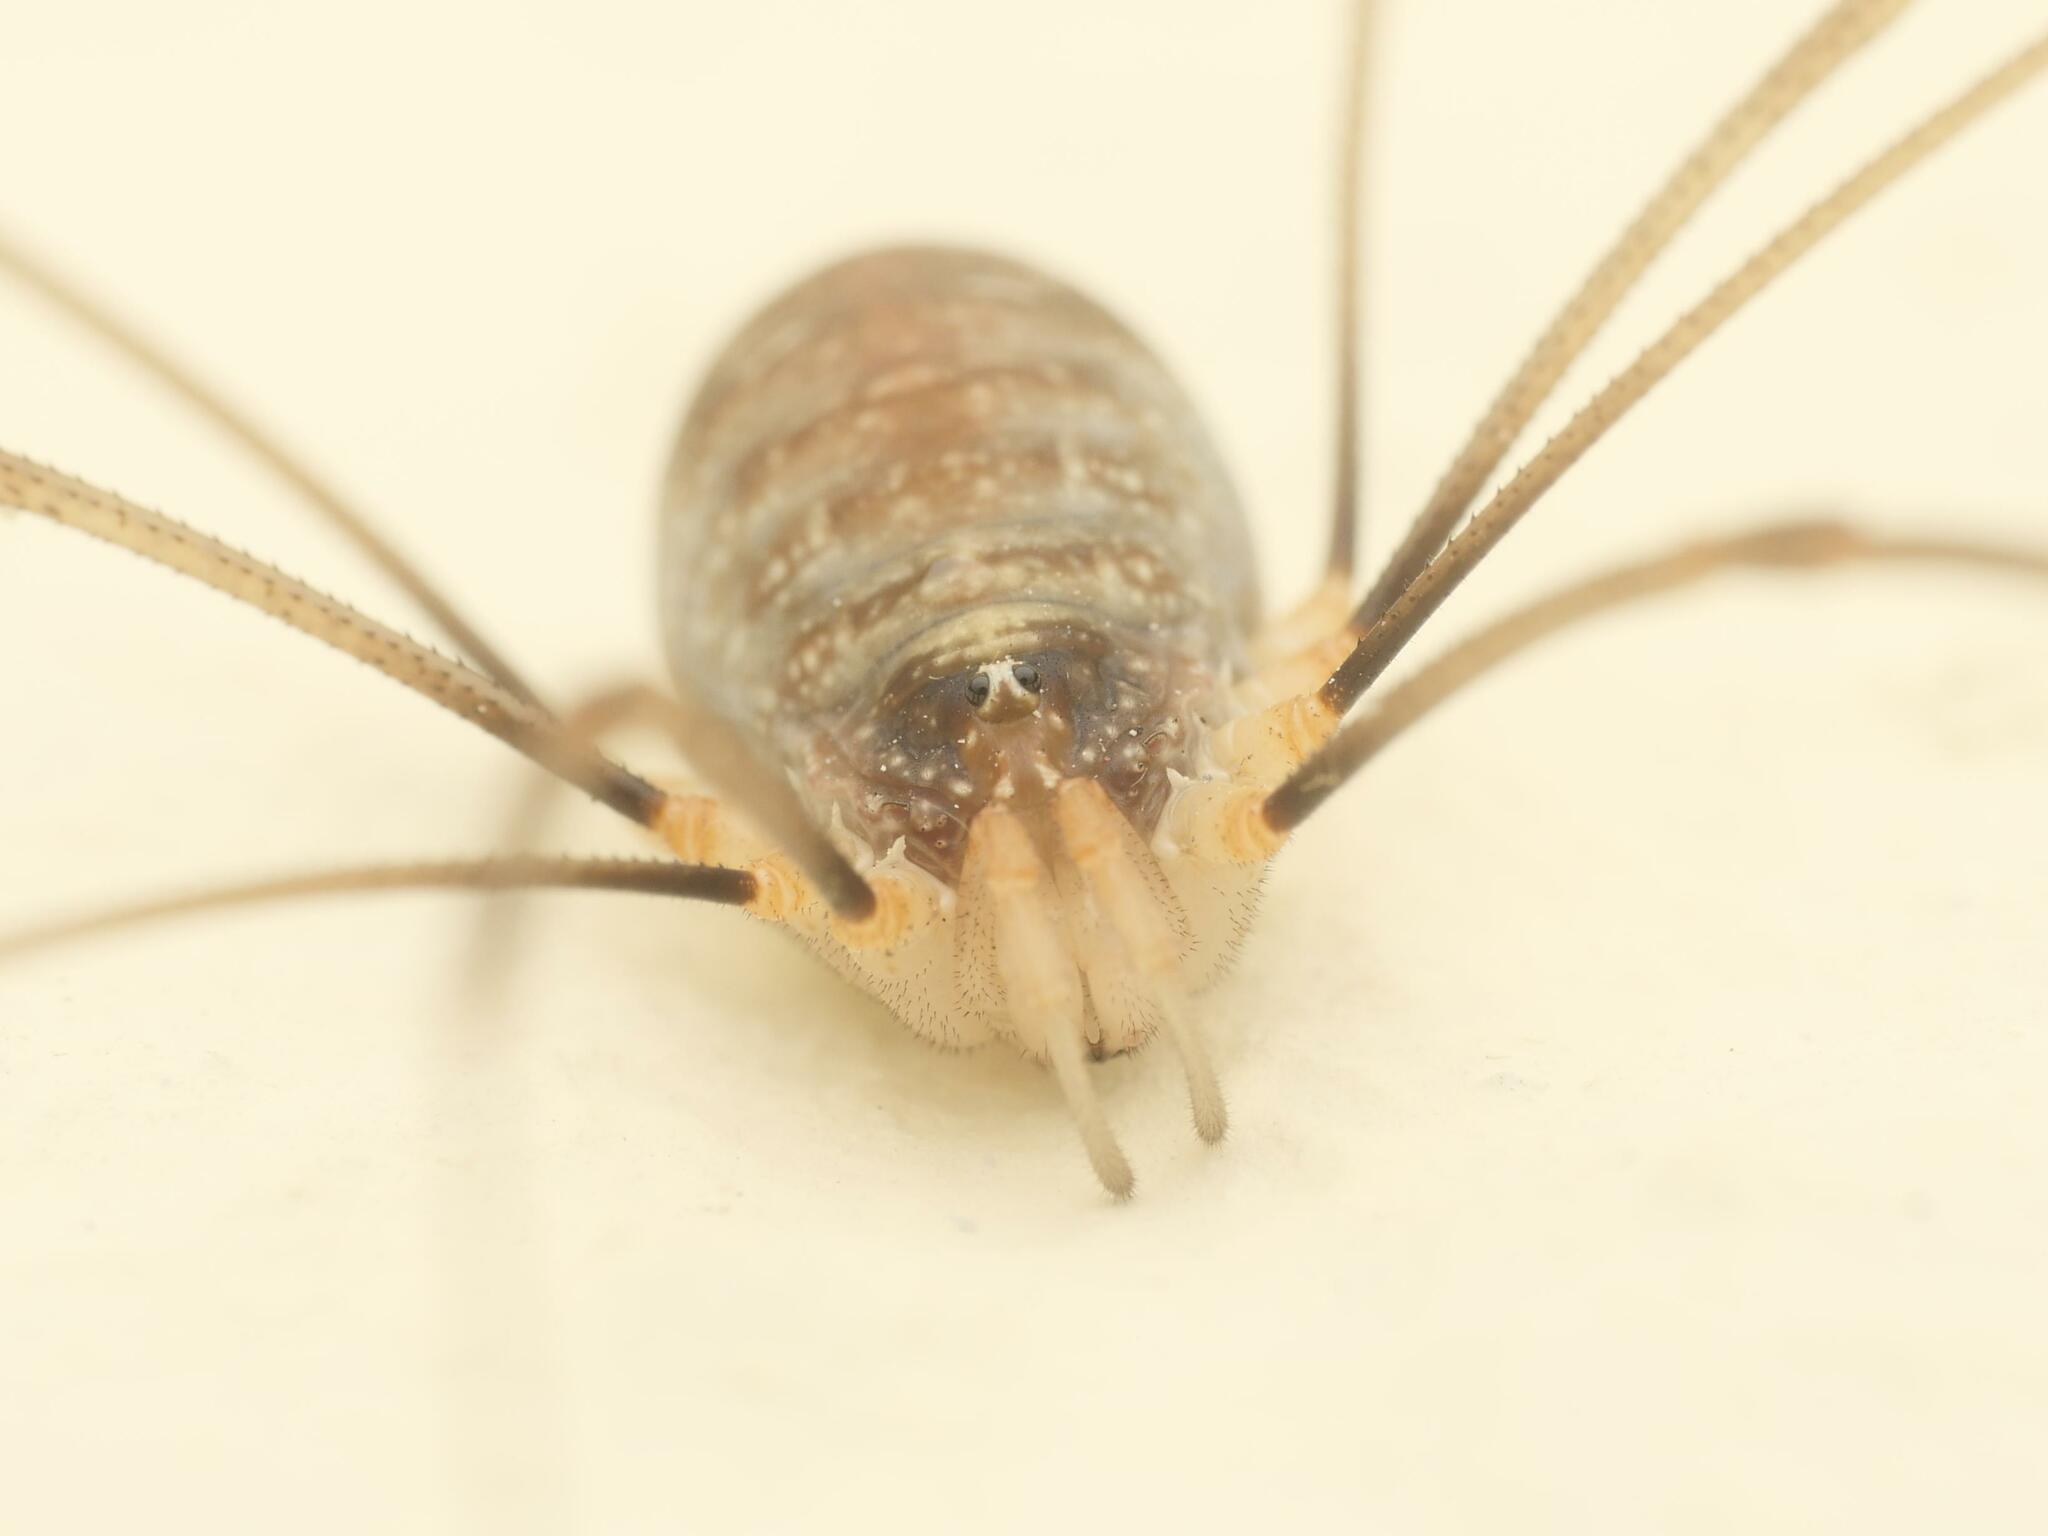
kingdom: Animalia
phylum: Arthropoda
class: Arachnida
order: Opiliones
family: Phalangiidae
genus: Opilio
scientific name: Opilio canestrinii
